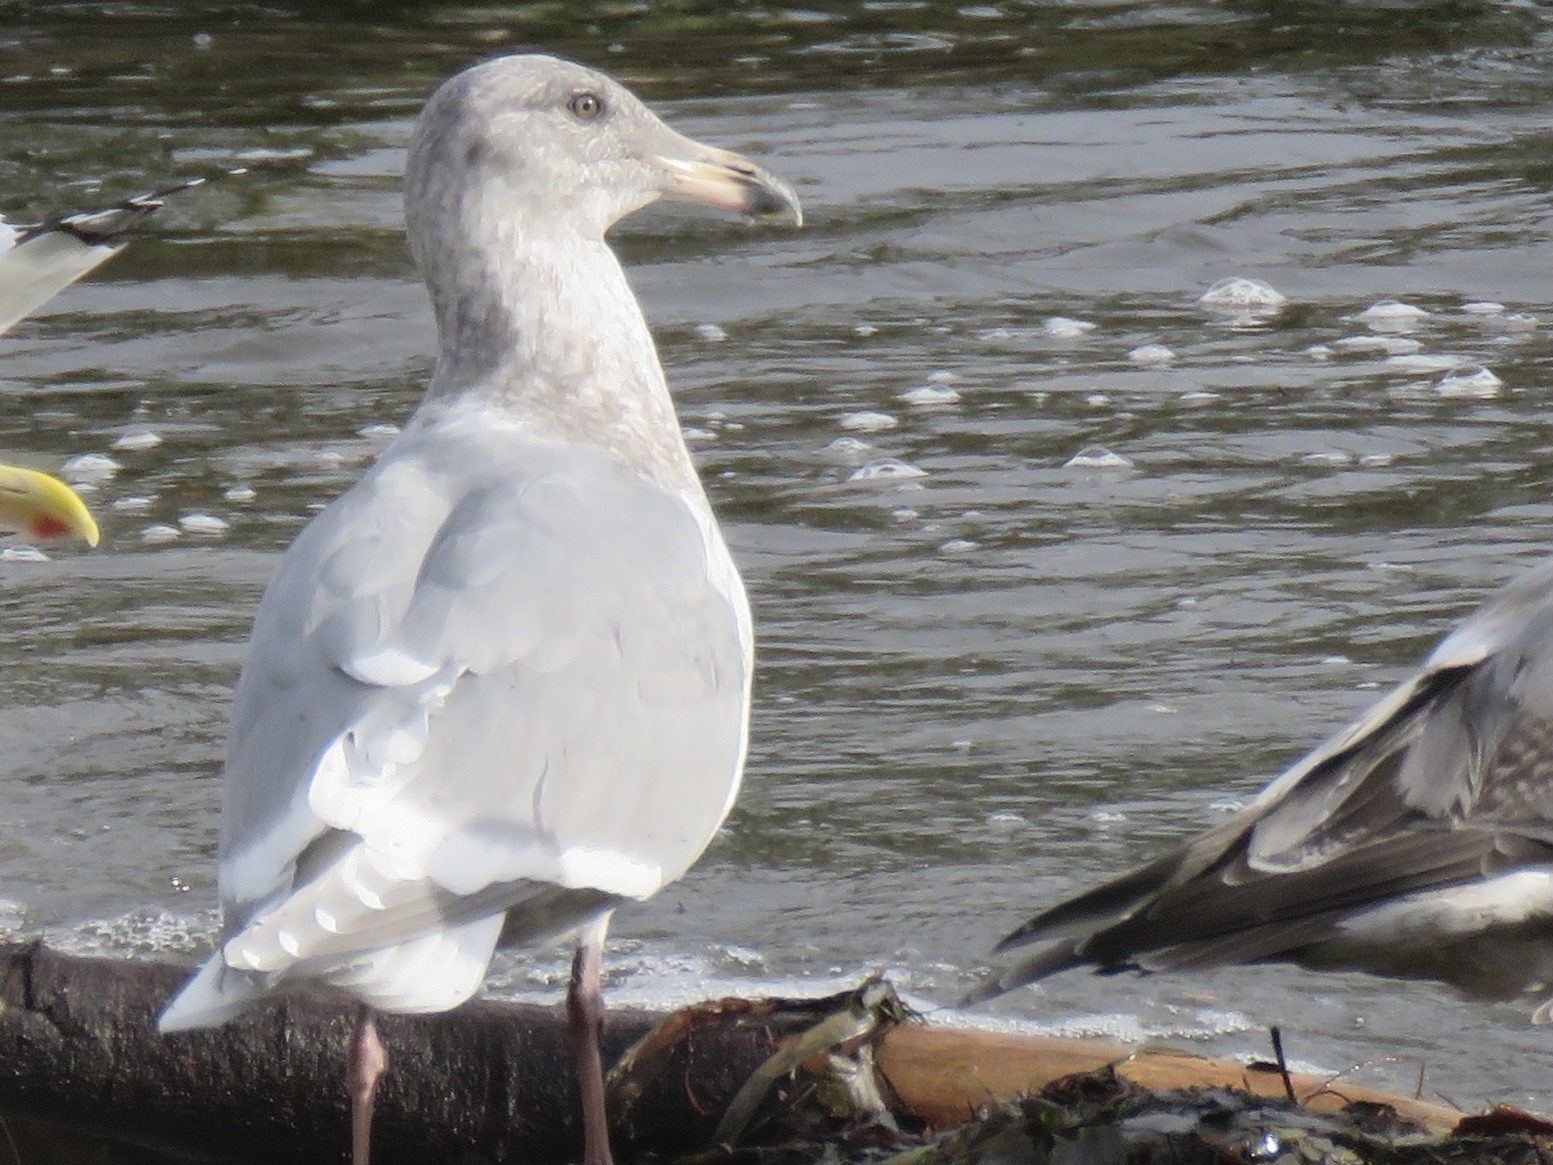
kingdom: Animalia
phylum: Chordata
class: Aves
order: Charadriiformes
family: Laridae
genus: Larus
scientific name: Larus glaucescens
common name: Glaucous-winged gull
